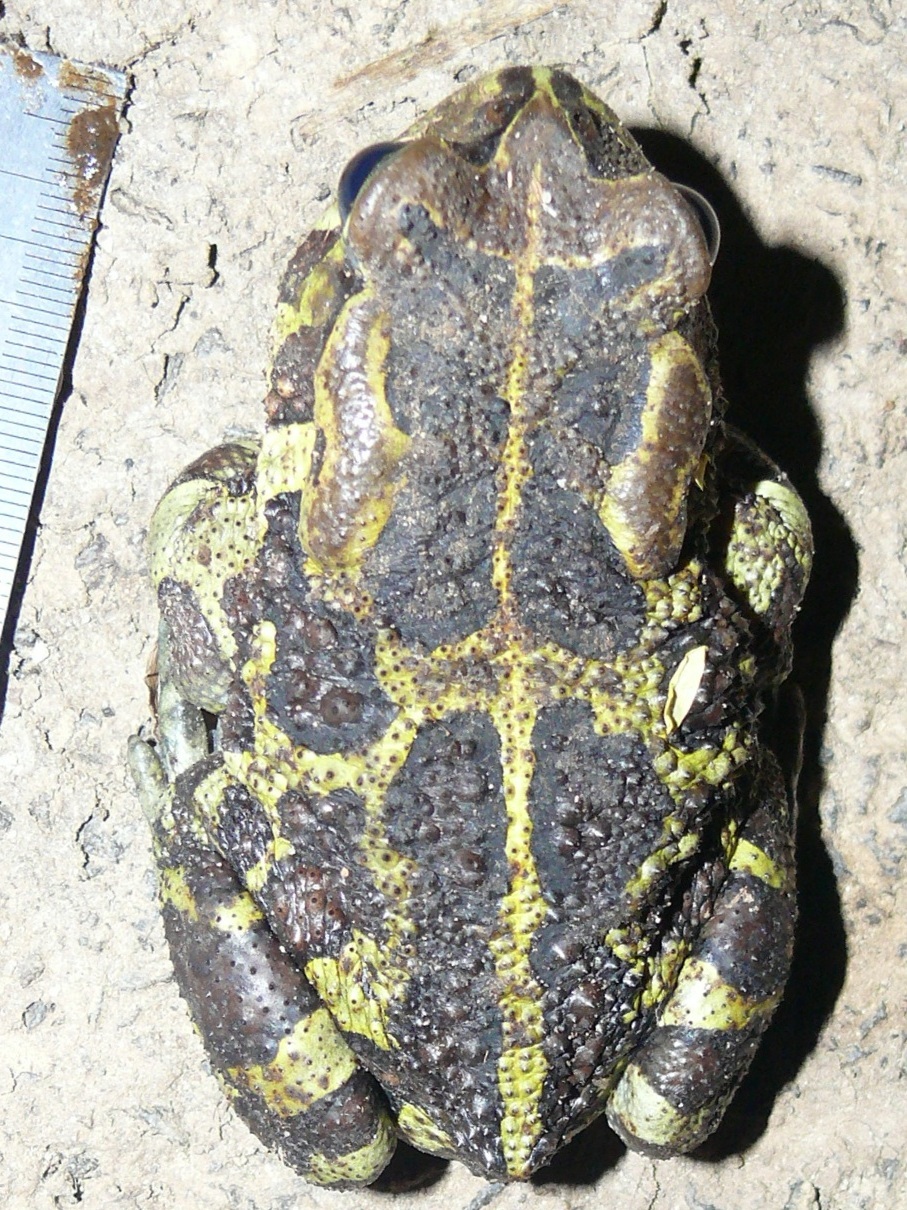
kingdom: Animalia
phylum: Chordata
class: Amphibia
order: Anura
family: Bufonidae
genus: Sclerophrys
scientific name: Sclerophrys pantherina
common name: Panther toad
